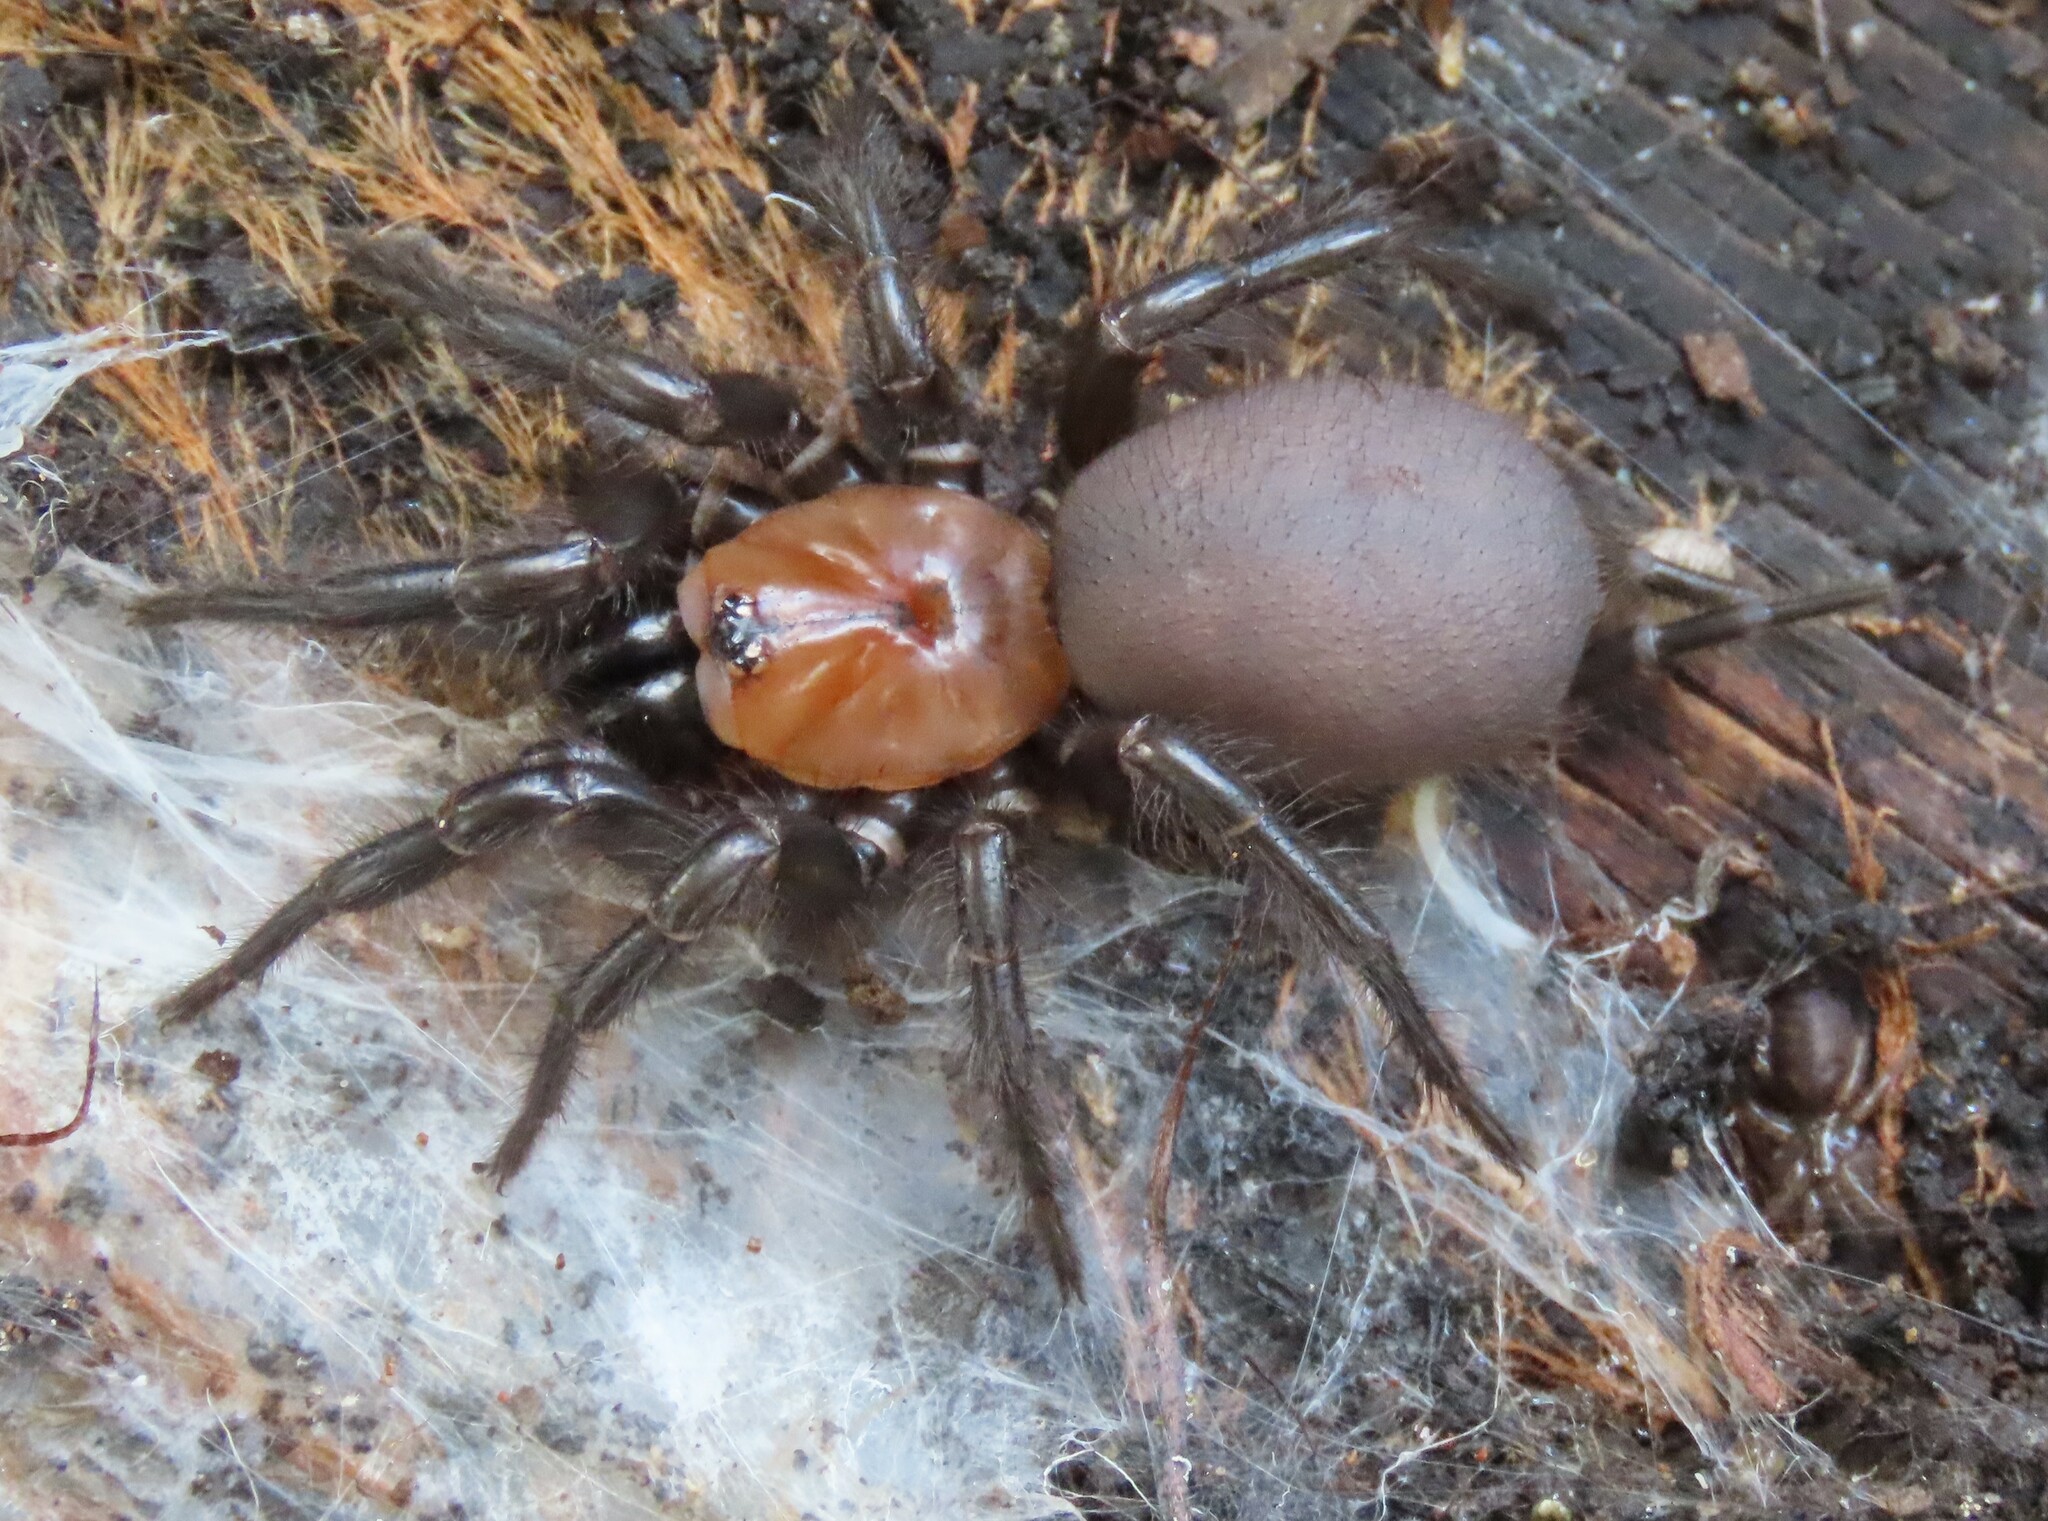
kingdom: Animalia
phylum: Arthropoda
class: Arachnida
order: Araneae
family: Porrhothelidae
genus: Porrhothele
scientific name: Porrhothele antipodiana
